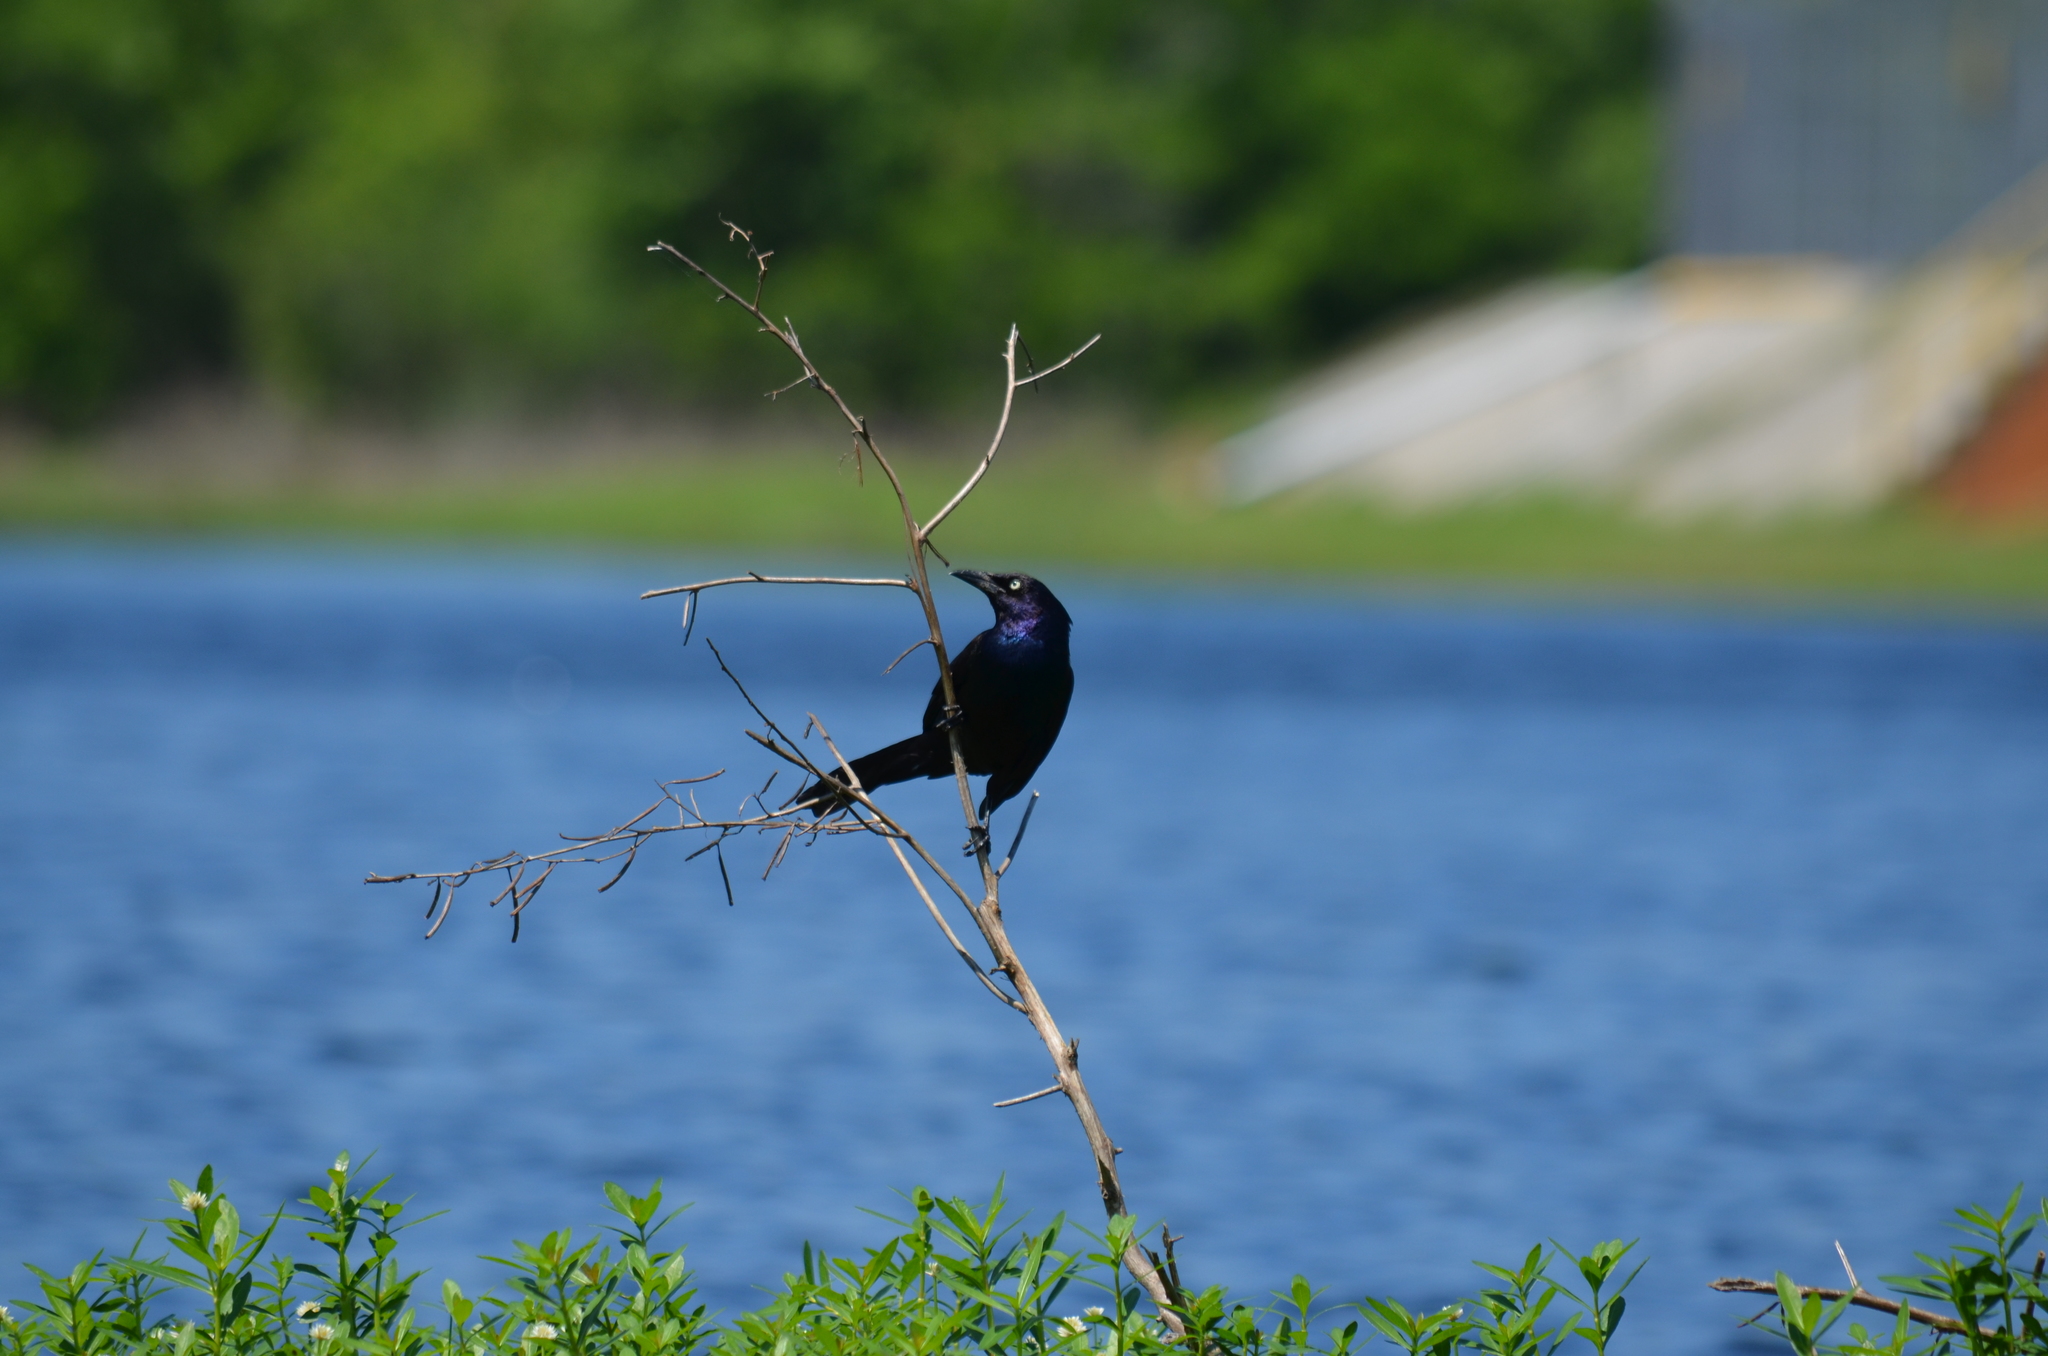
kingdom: Animalia
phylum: Chordata
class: Aves
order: Passeriformes
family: Icteridae
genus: Quiscalus
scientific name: Quiscalus quiscula
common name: Common grackle
